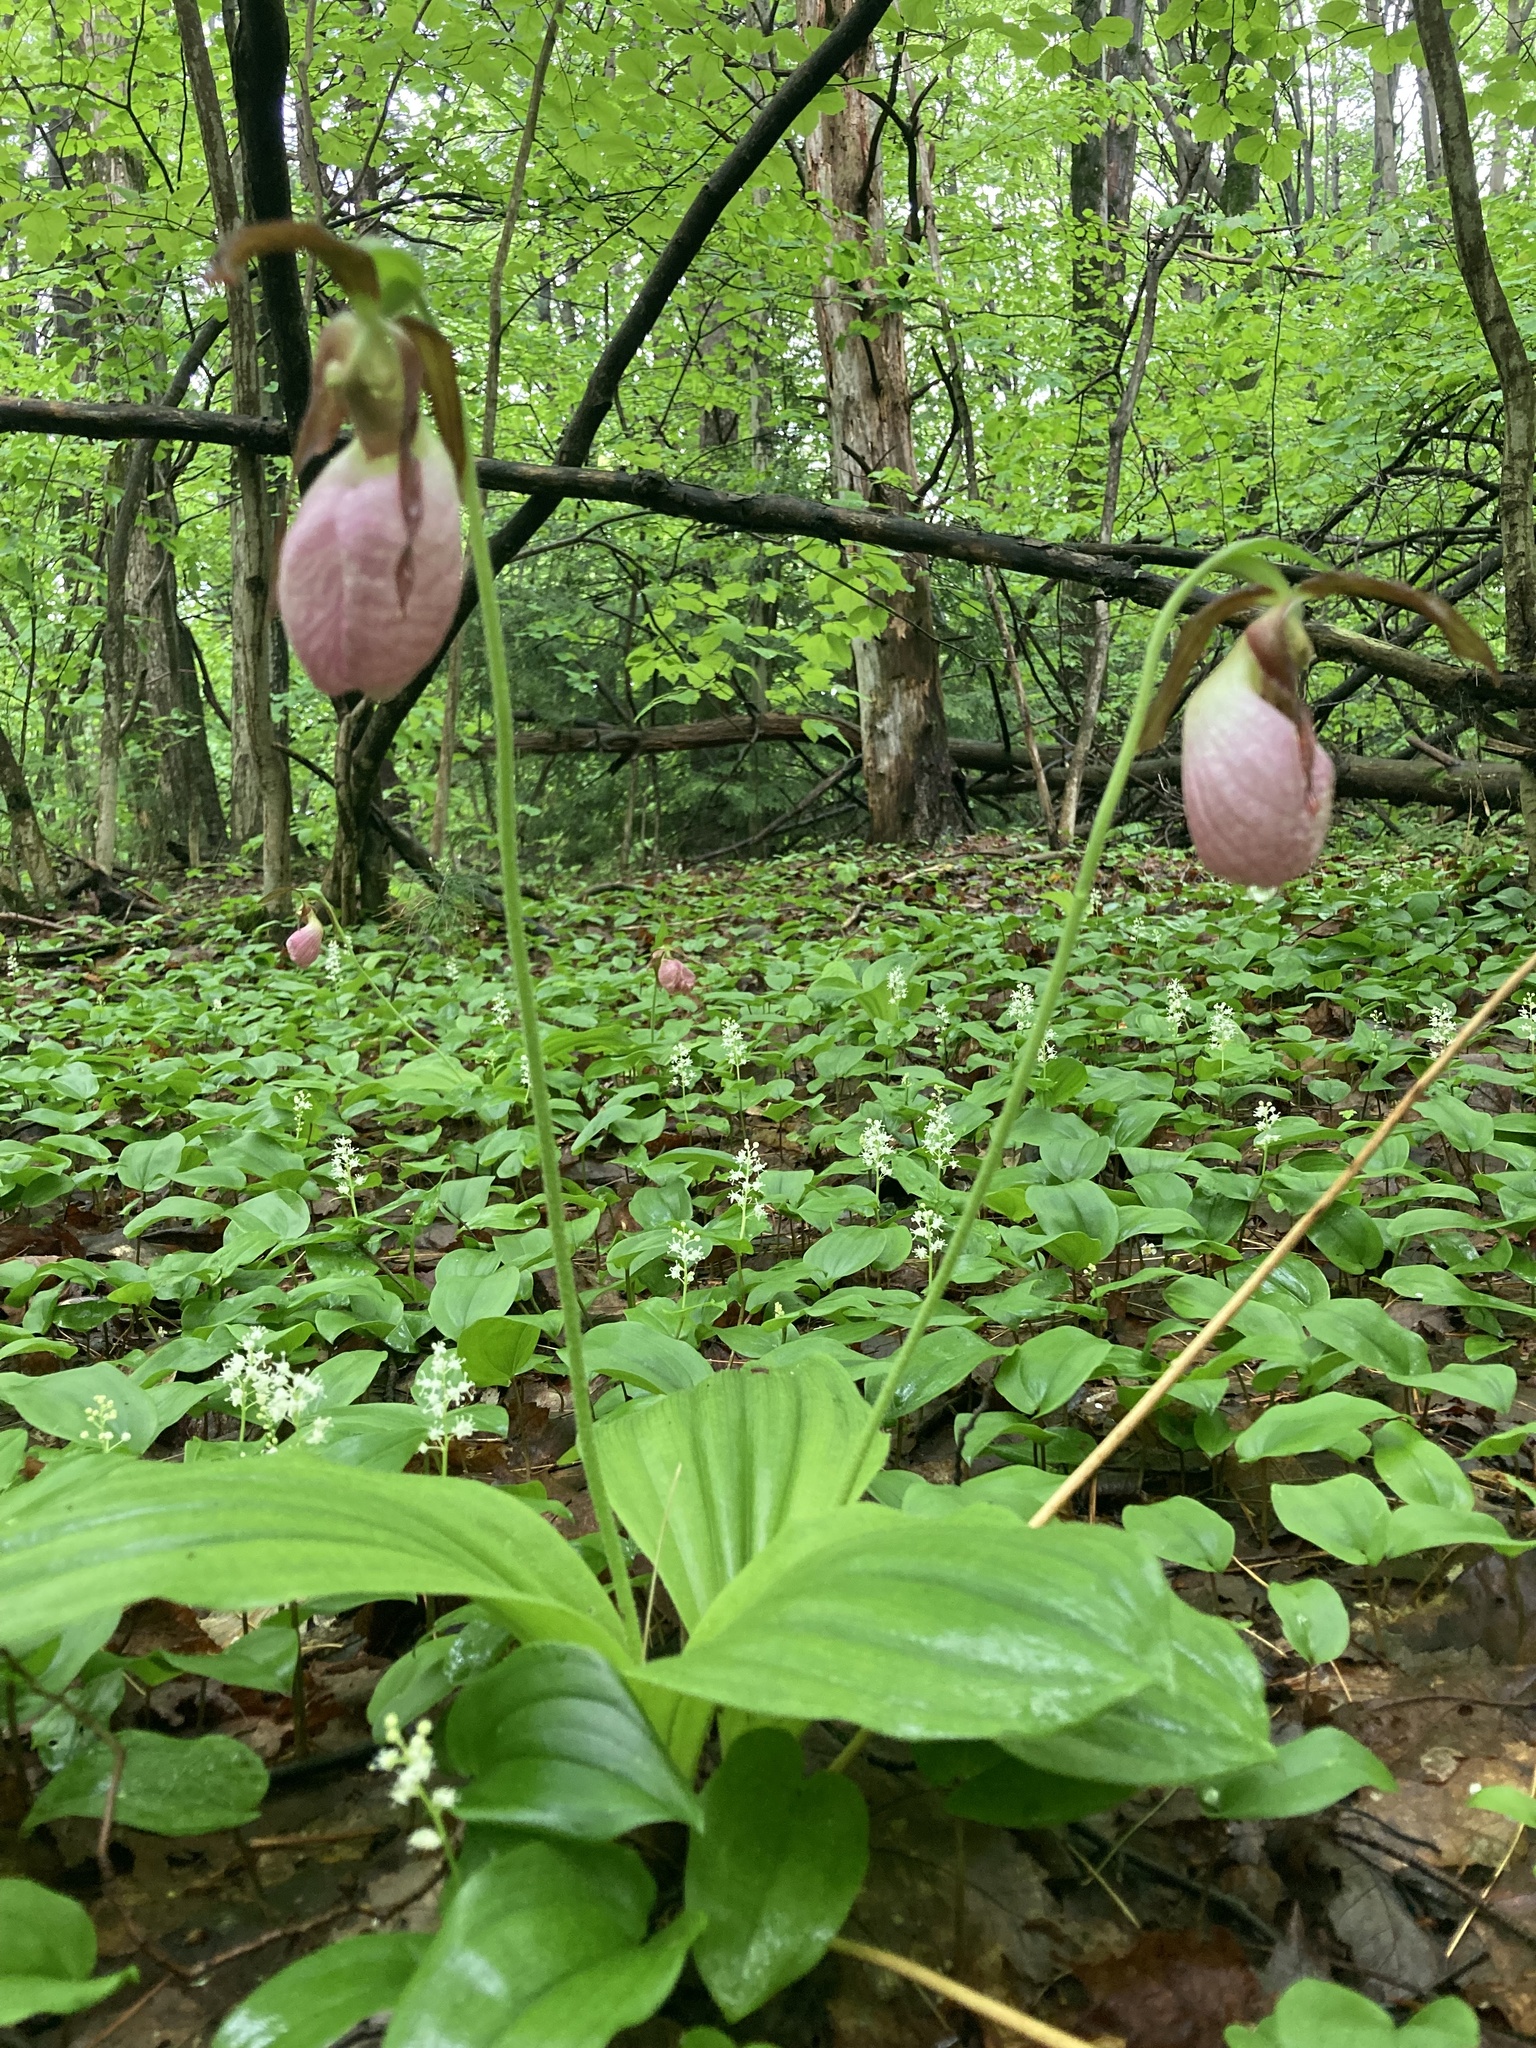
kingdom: Plantae
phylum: Tracheophyta
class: Liliopsida
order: Asparagales
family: Orchidaceae
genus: Cypripedium
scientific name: Cypripedium acaule
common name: Pink lady's-slipper
